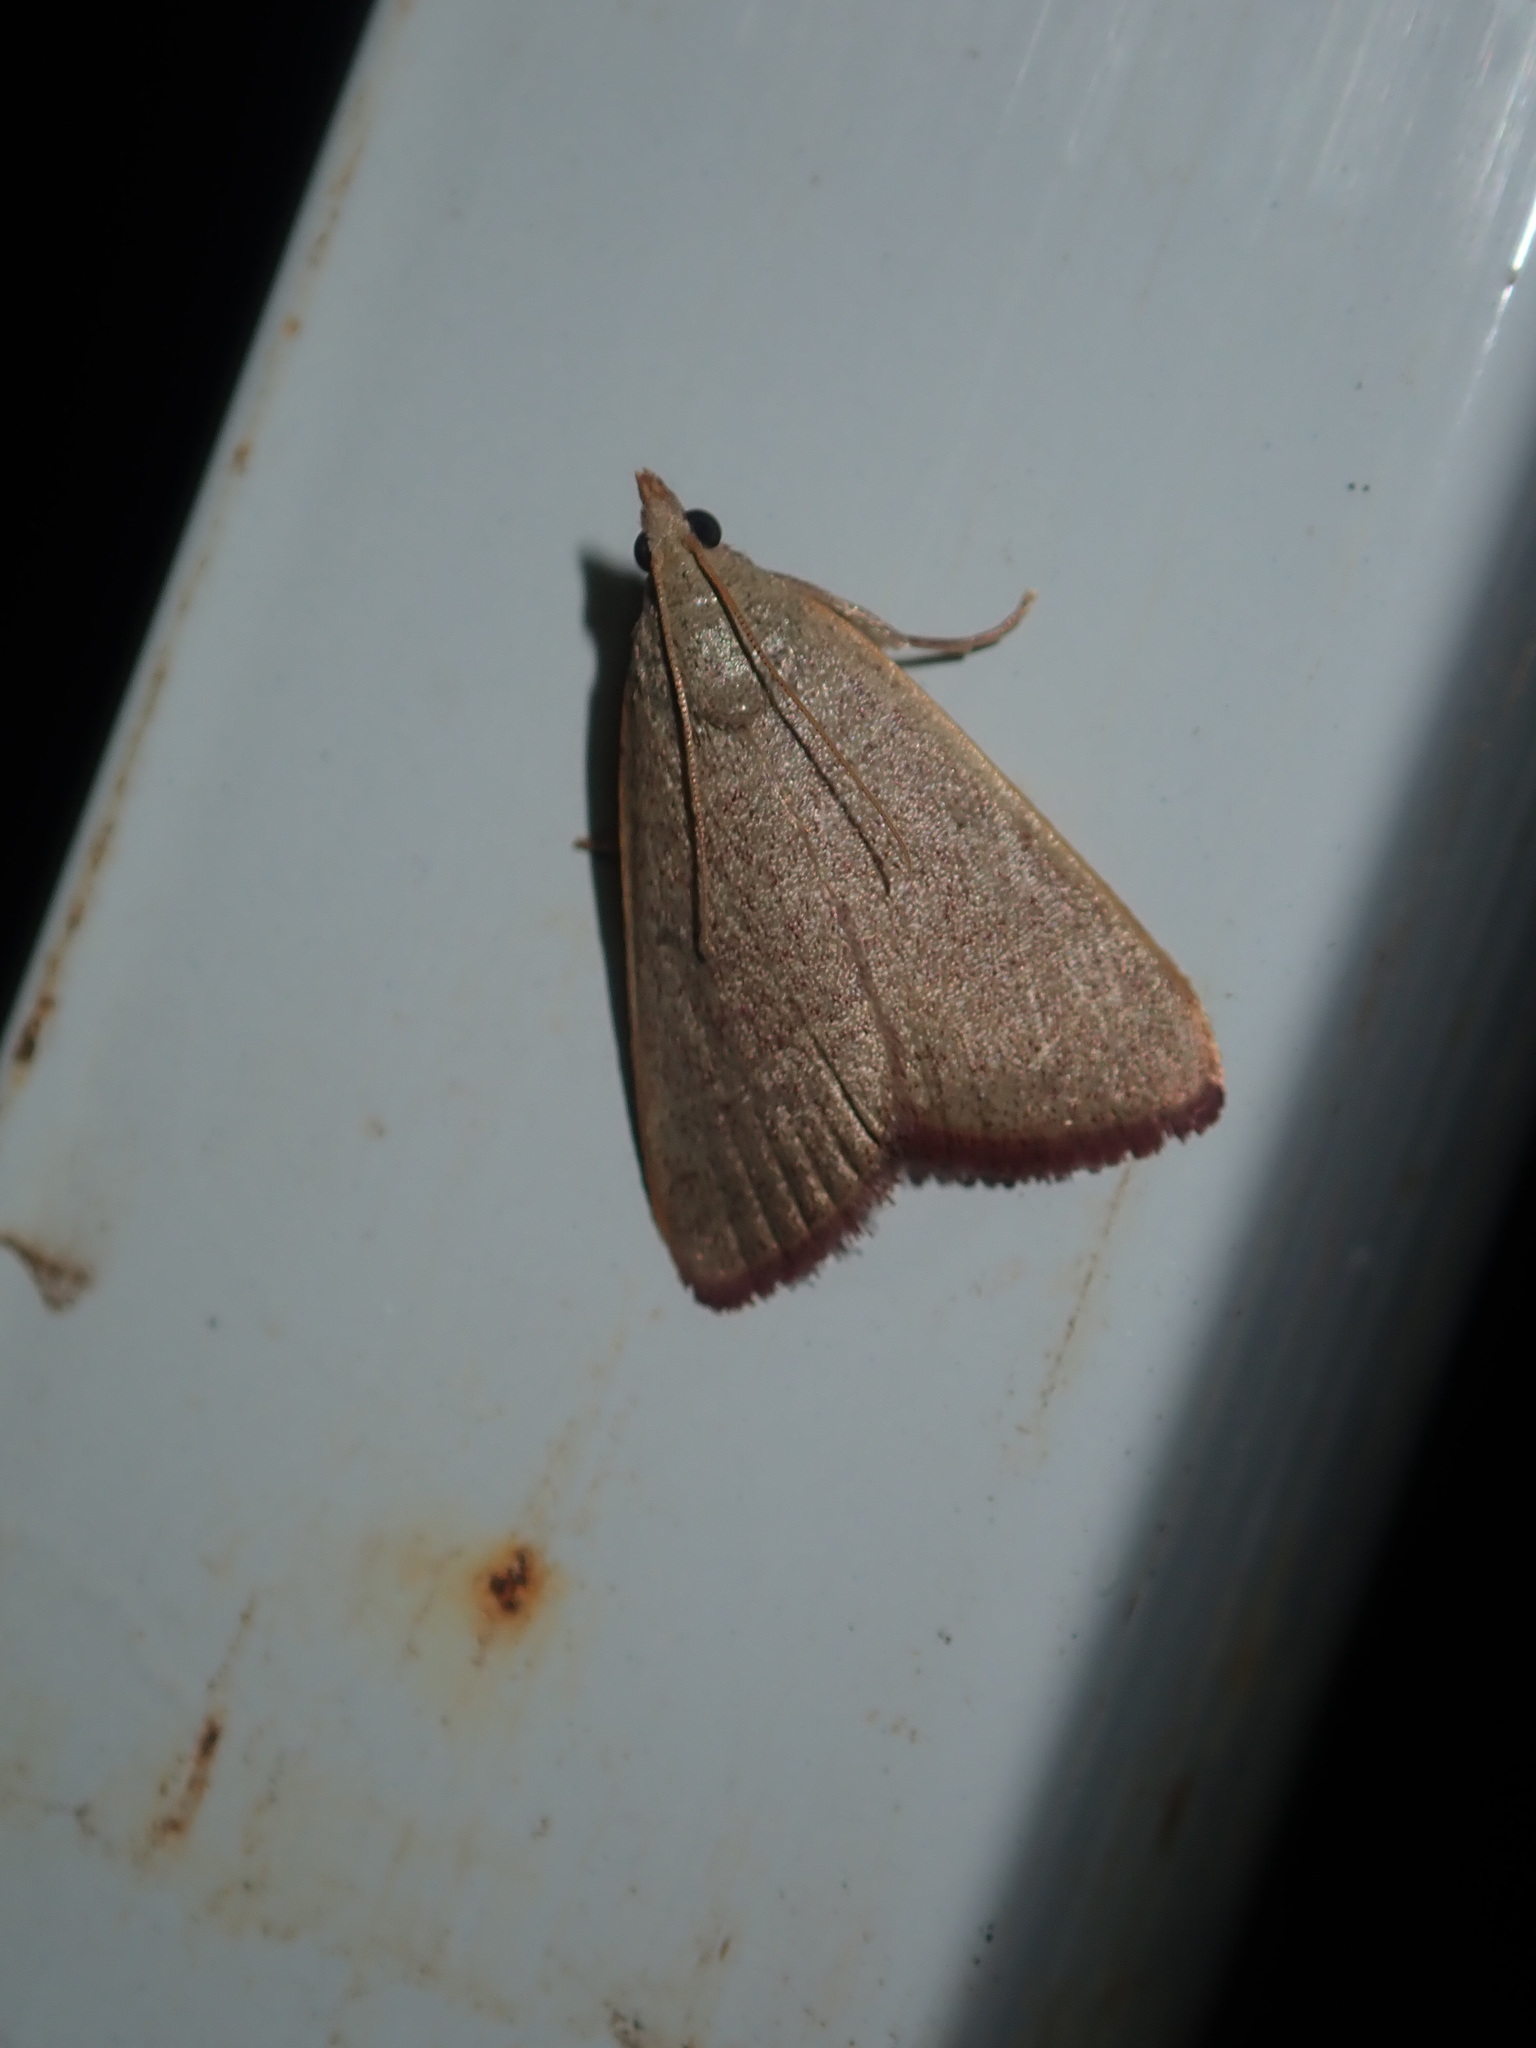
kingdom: Animalia
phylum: Arthropoda
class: Insecta
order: Lepidoptera
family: Pyralidae
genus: Hypsopygia
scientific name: Hypsopygia
